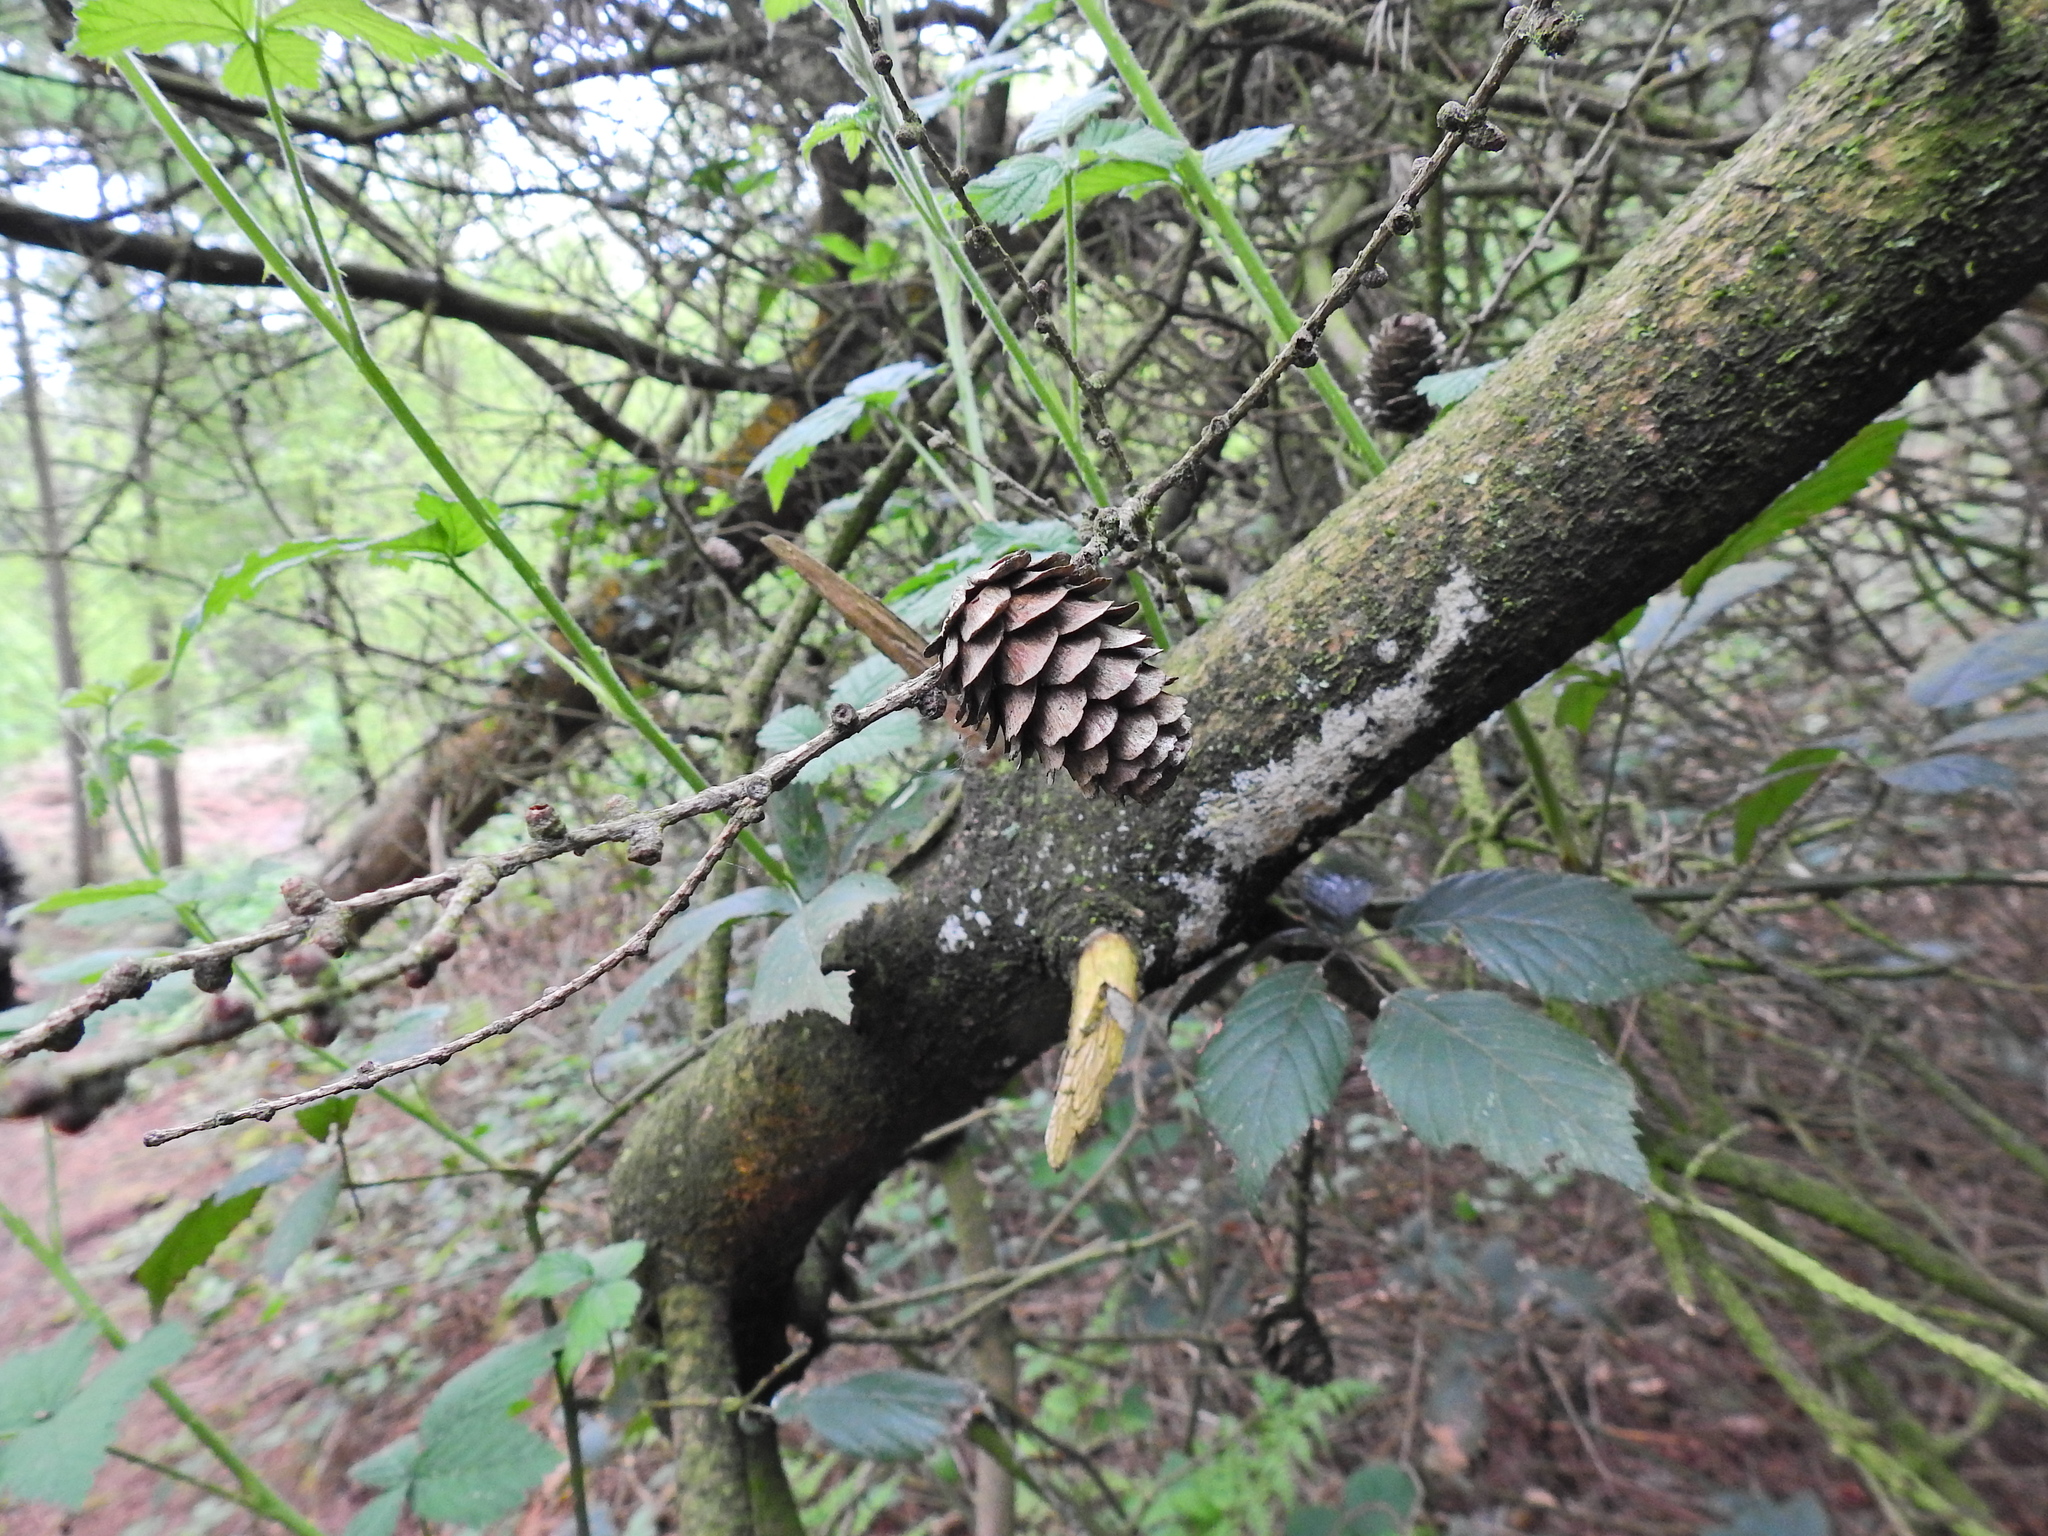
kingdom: Plantae
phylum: Tracheophyta
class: Pinopsida
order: Pinales
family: Pinaceae
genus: Larix
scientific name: Larix decidua
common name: European larch
